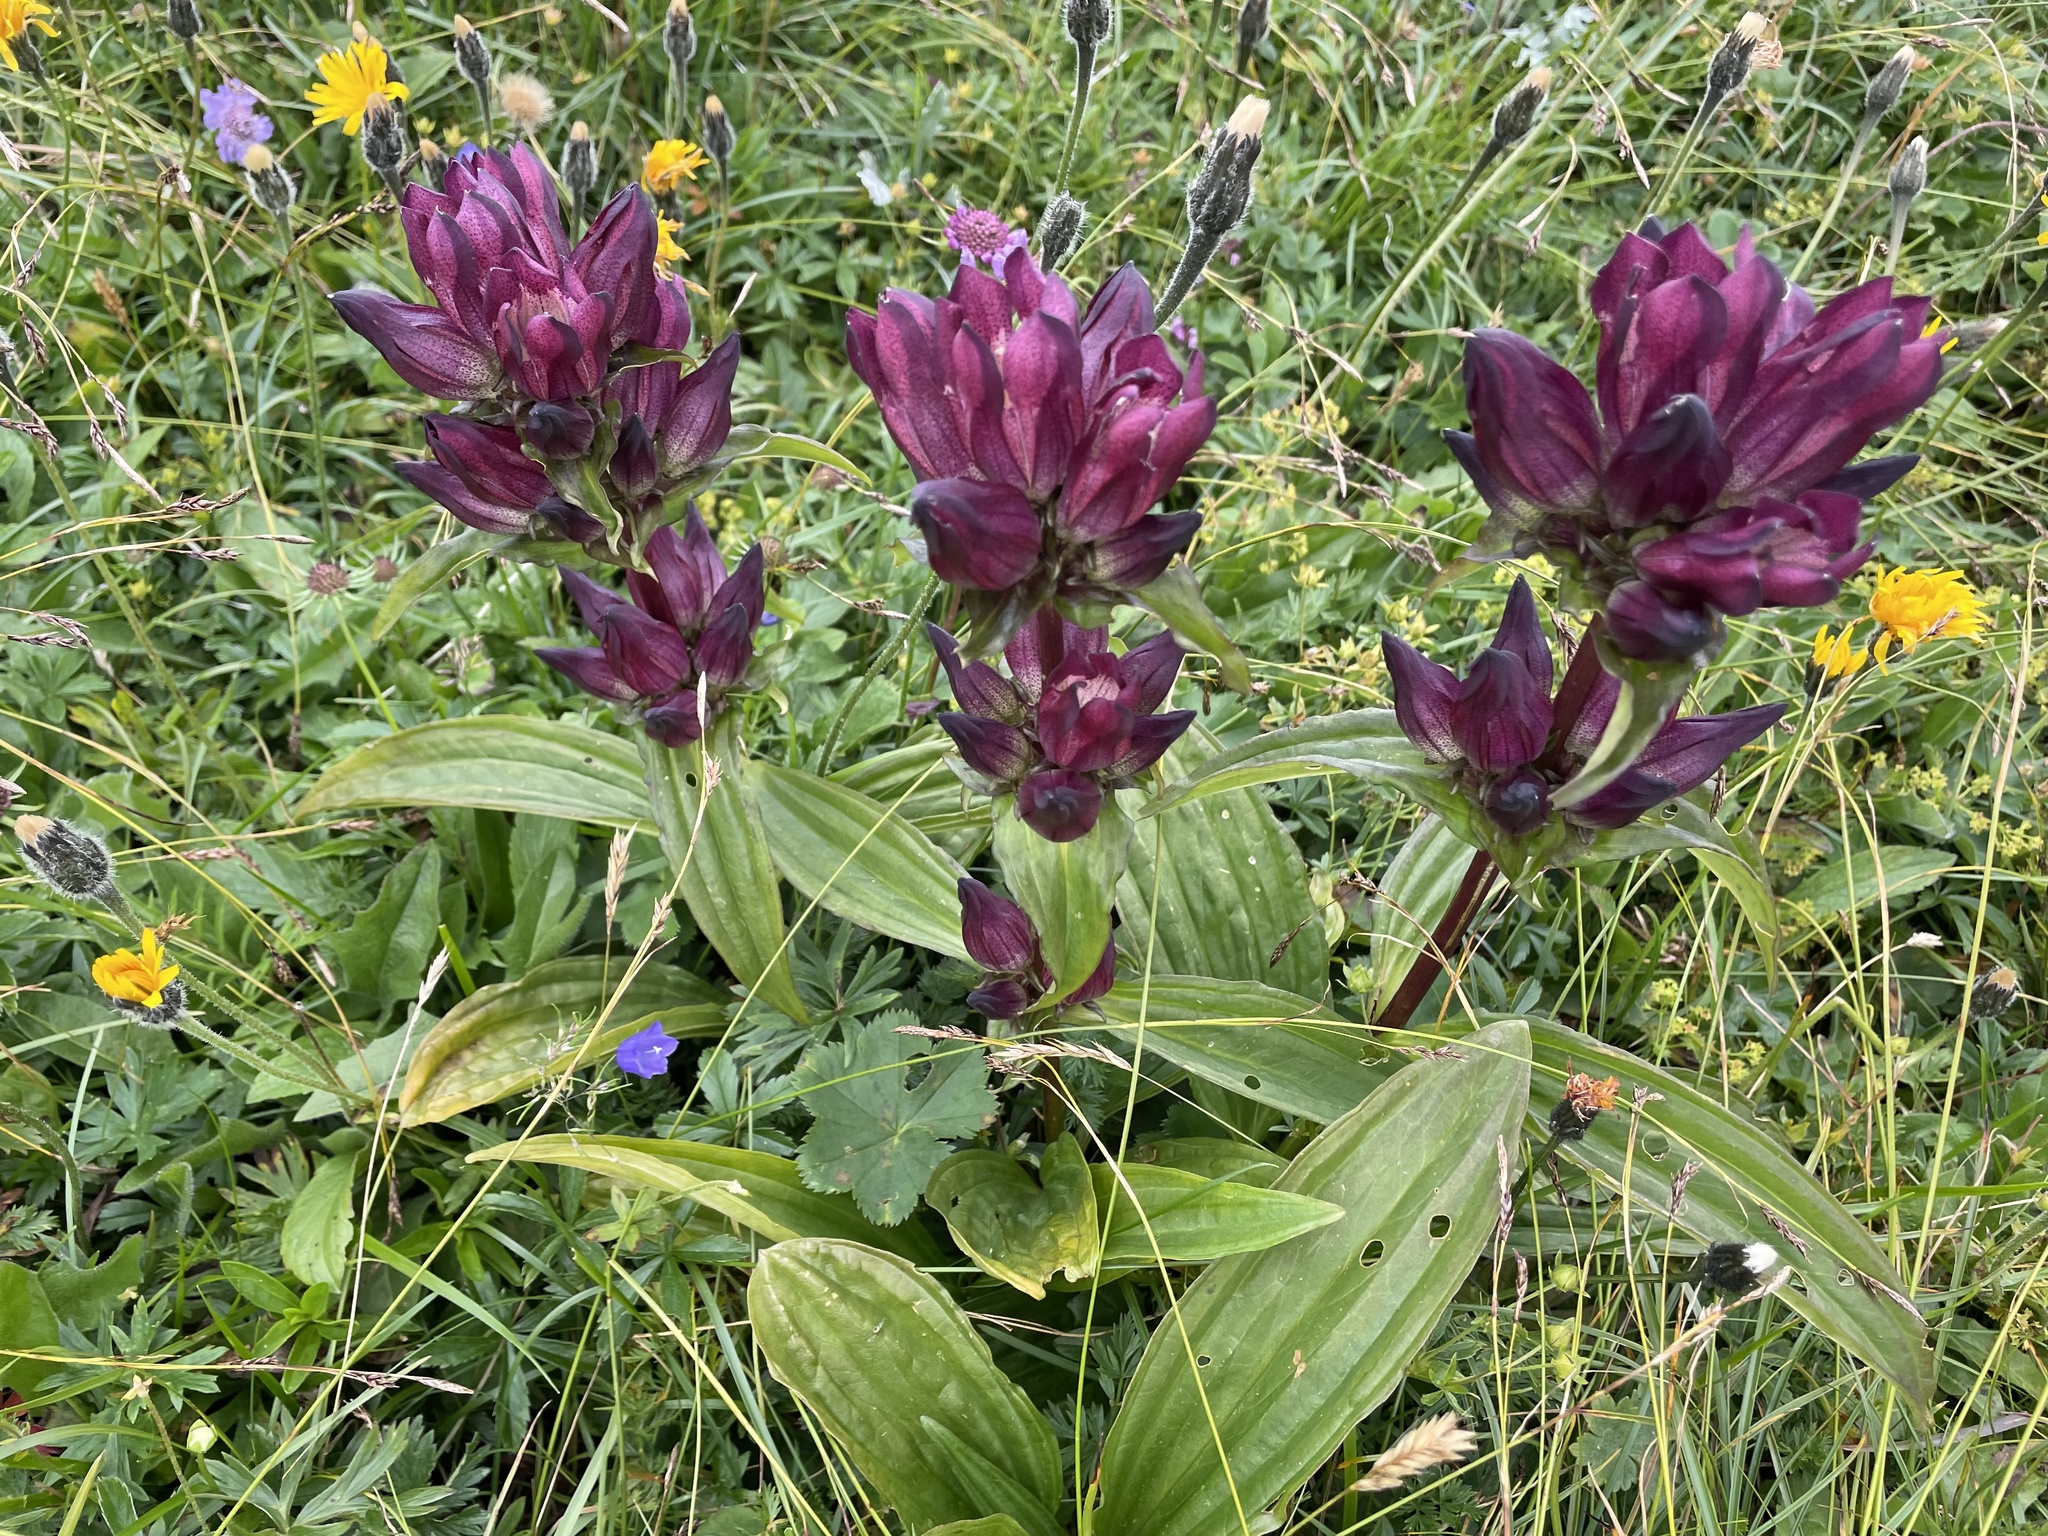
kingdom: Plantae
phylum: Tracheophyta
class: Magnoliopsida
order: Gentianales
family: Gentianaceae
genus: Gentiana
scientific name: Gentiana pannonica
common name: Hungarian gentian
